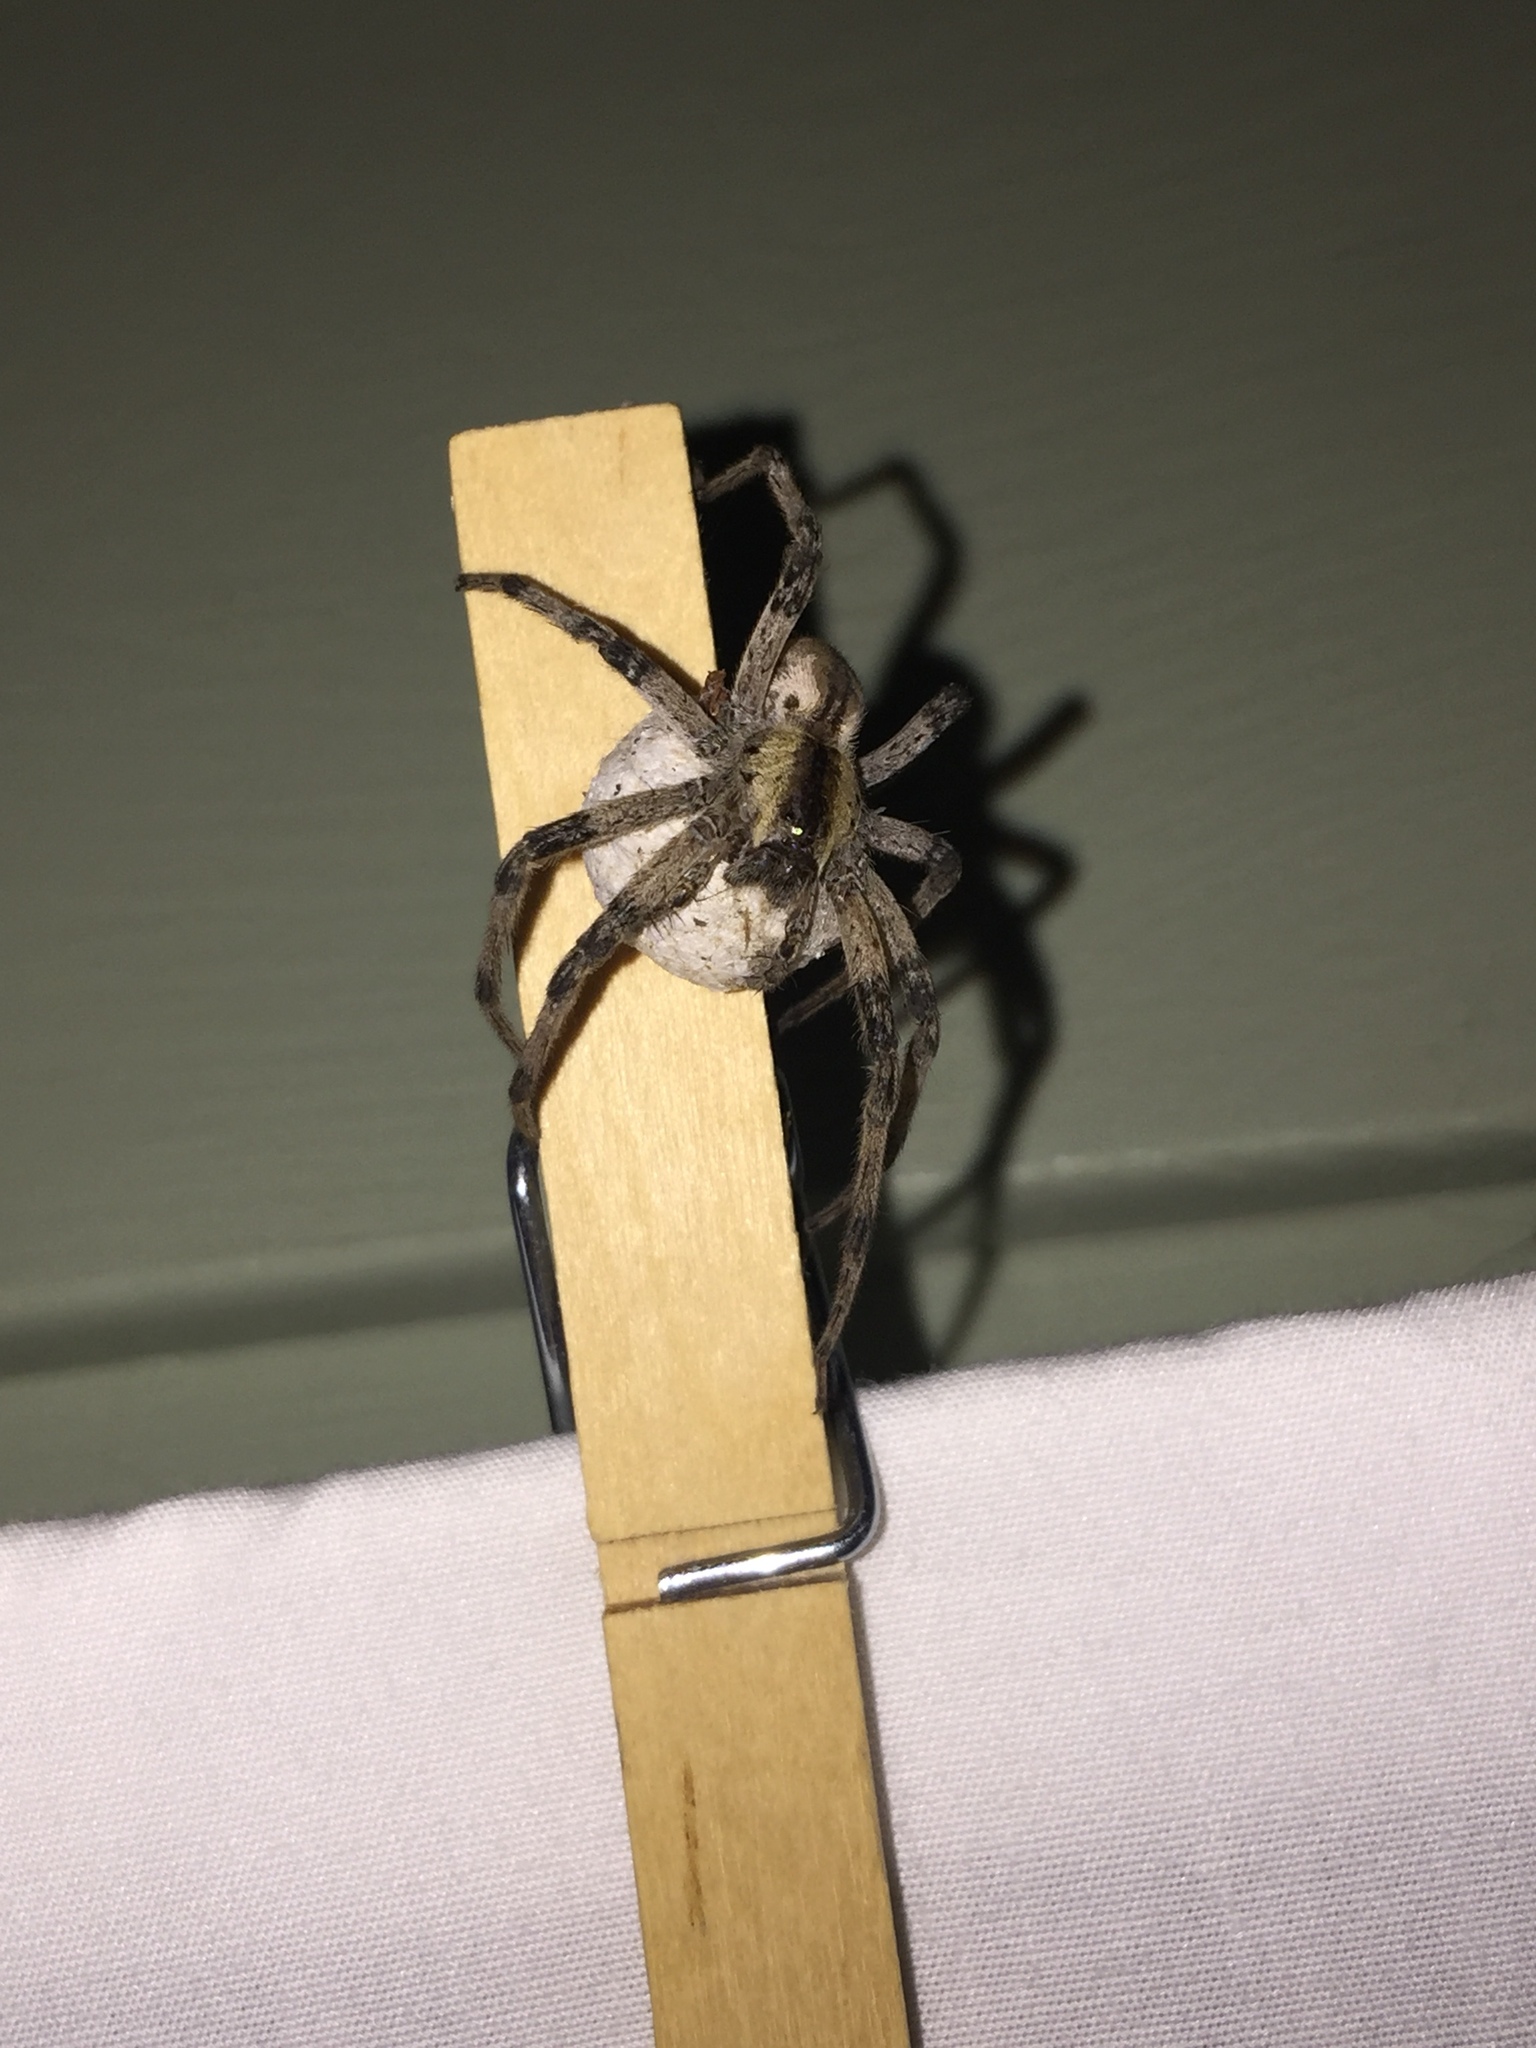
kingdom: Animalia
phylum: Arthropoda
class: Arachnida
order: Araneae
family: Pisauridae
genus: Pisaurina
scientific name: Pisaurina mira
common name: American nursery web spider
